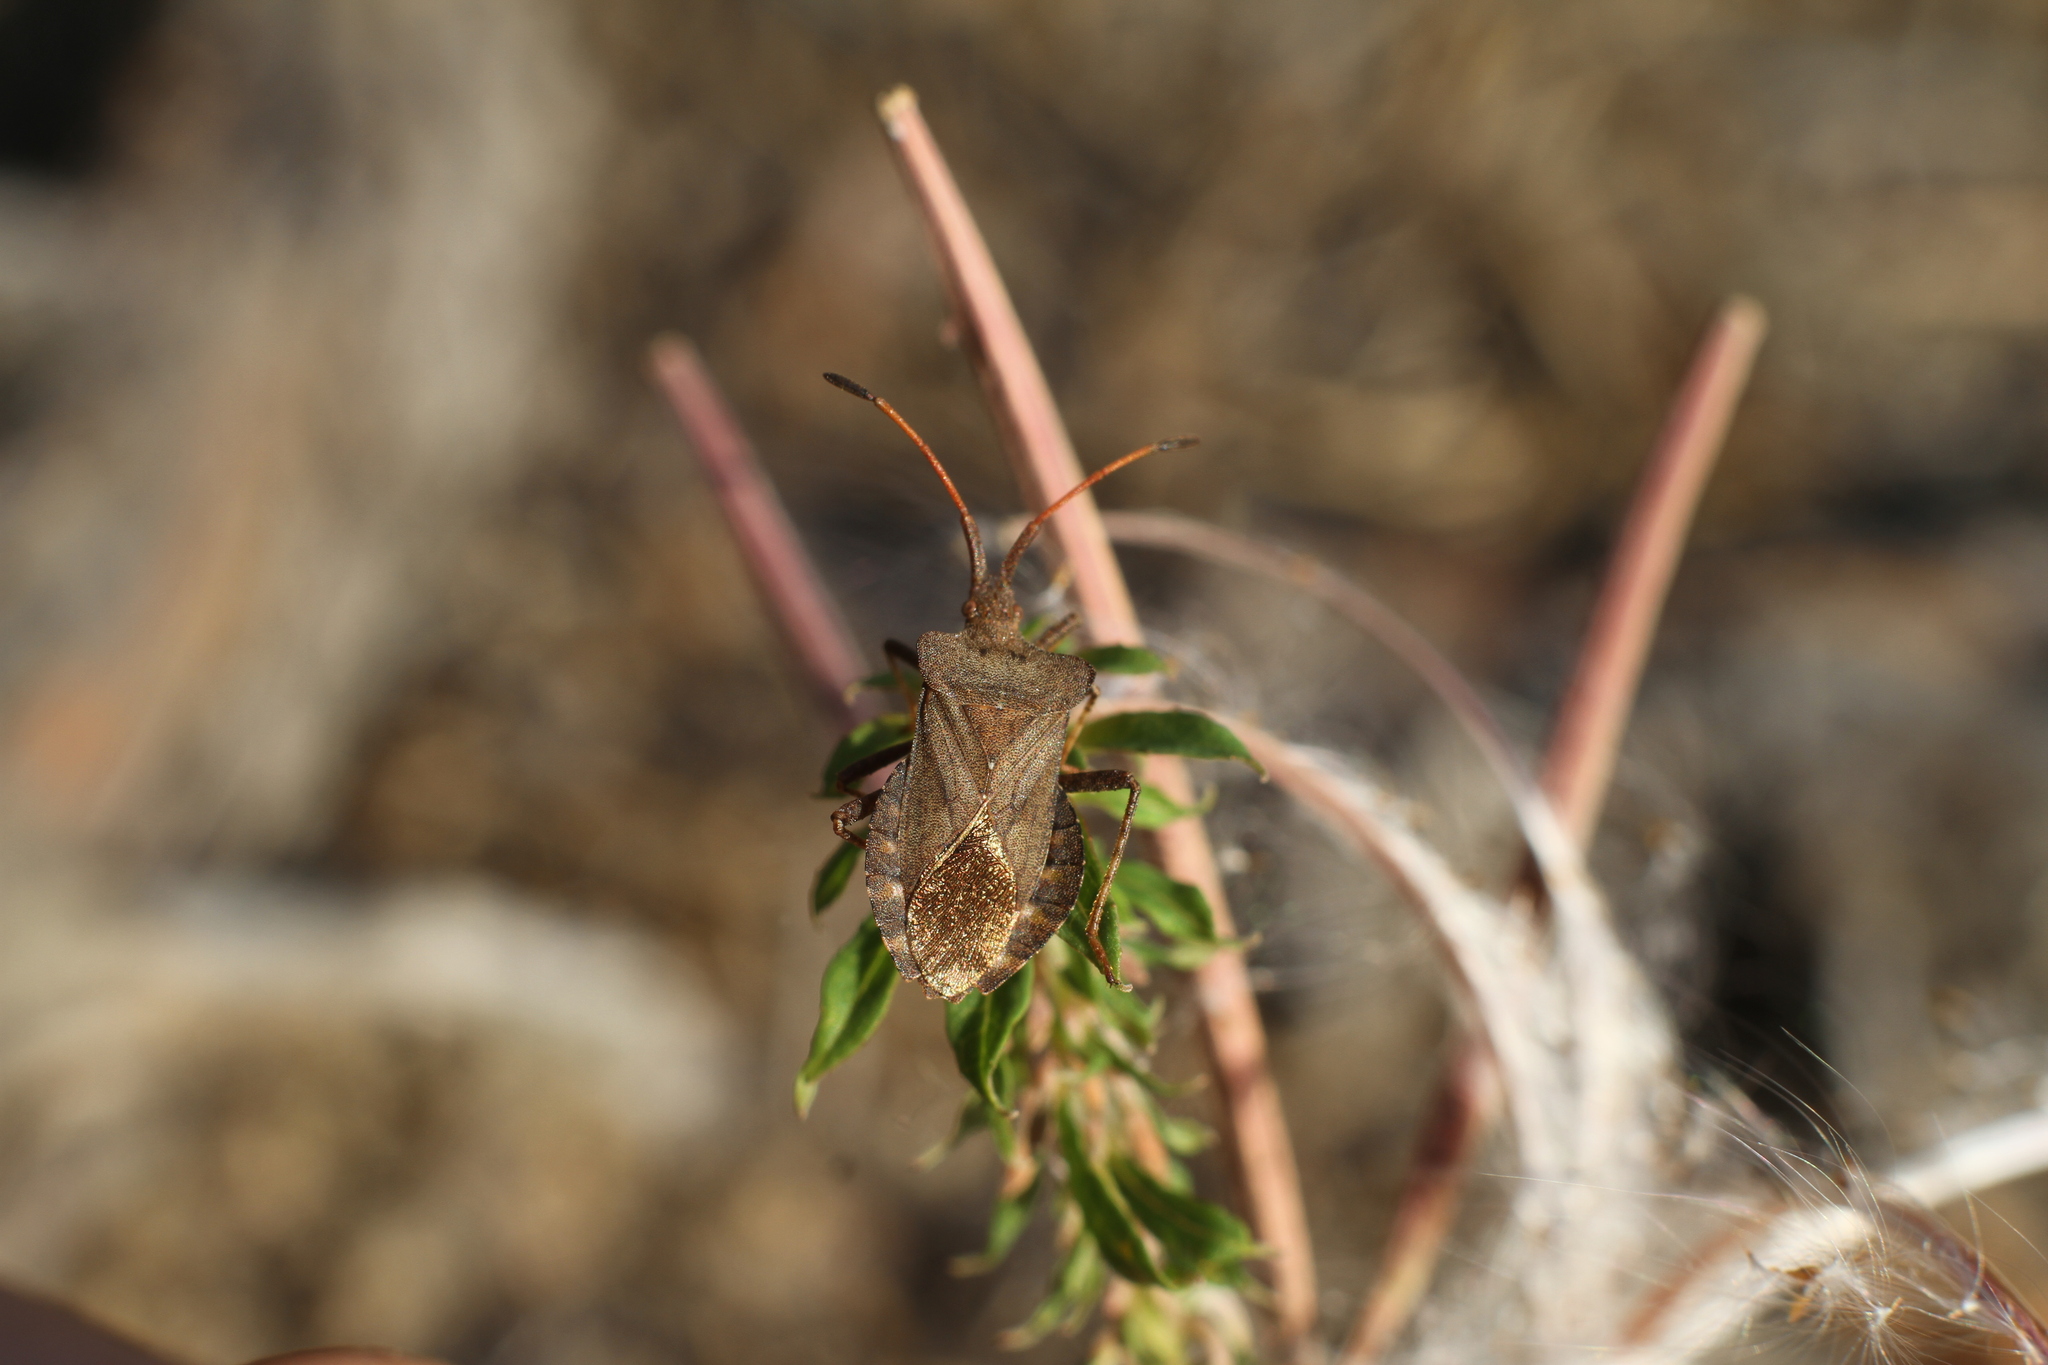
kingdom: Animalia
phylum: Arthropoda
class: Insecta
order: Hemiptera
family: Coreidae
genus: Coreus
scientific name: Coreus marginatus
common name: Dock bug
